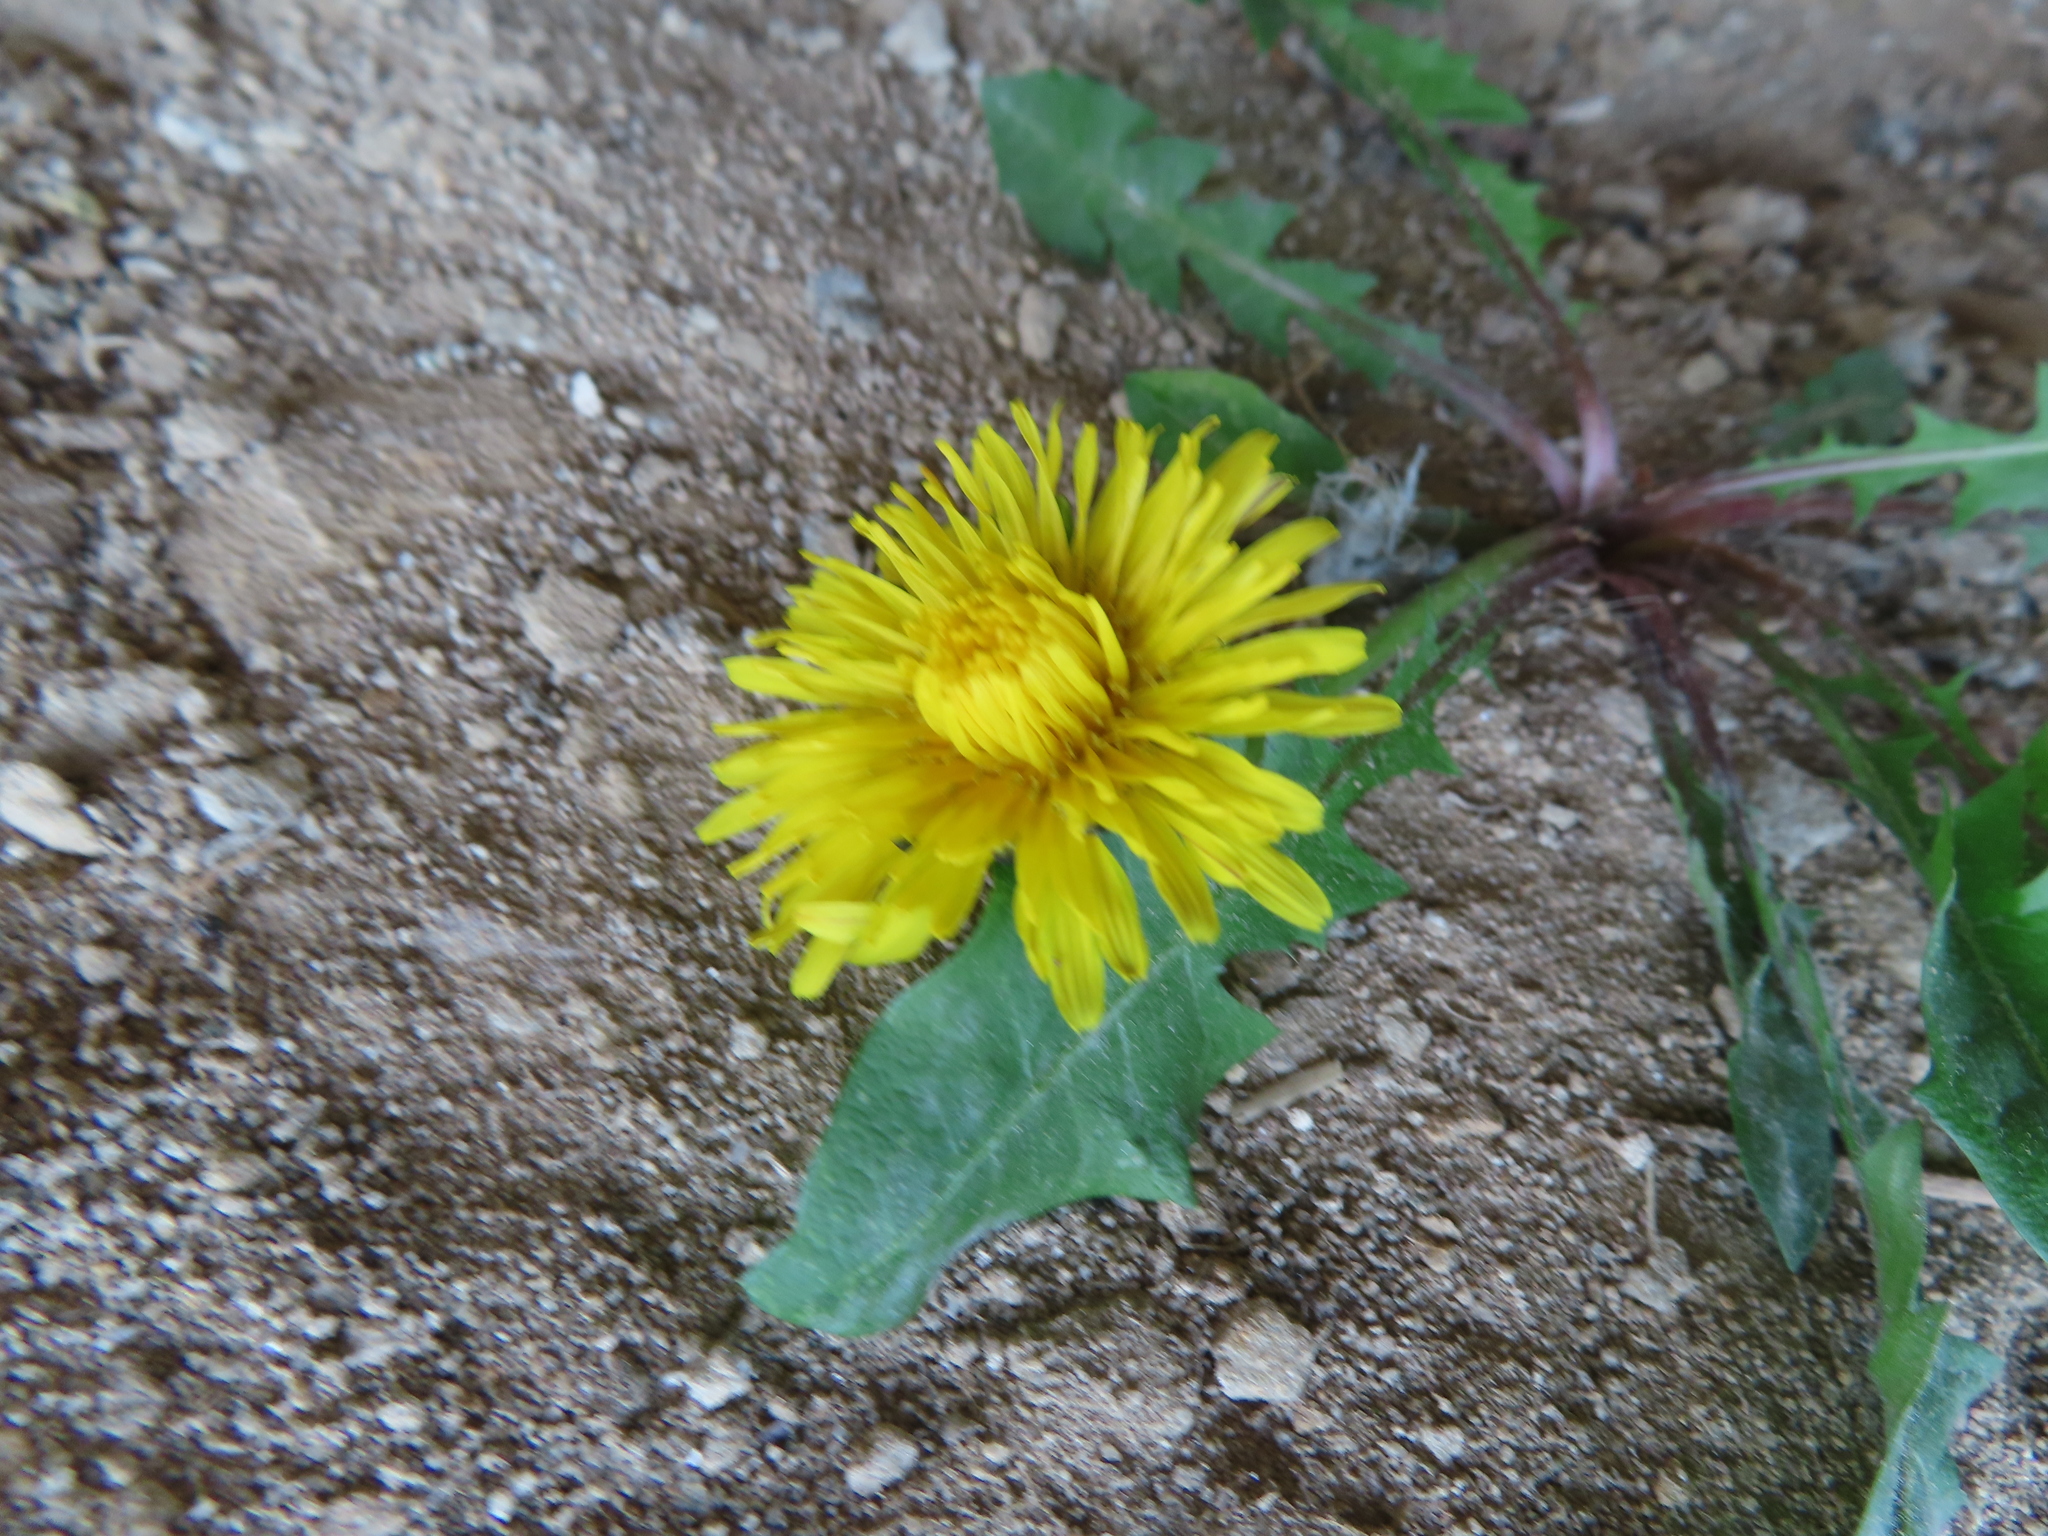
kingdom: Plantae
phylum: Tracheophyta
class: Magnoliopsida
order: Asterales
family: Asteraceae
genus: Taraxacum
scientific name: Taraxacum
